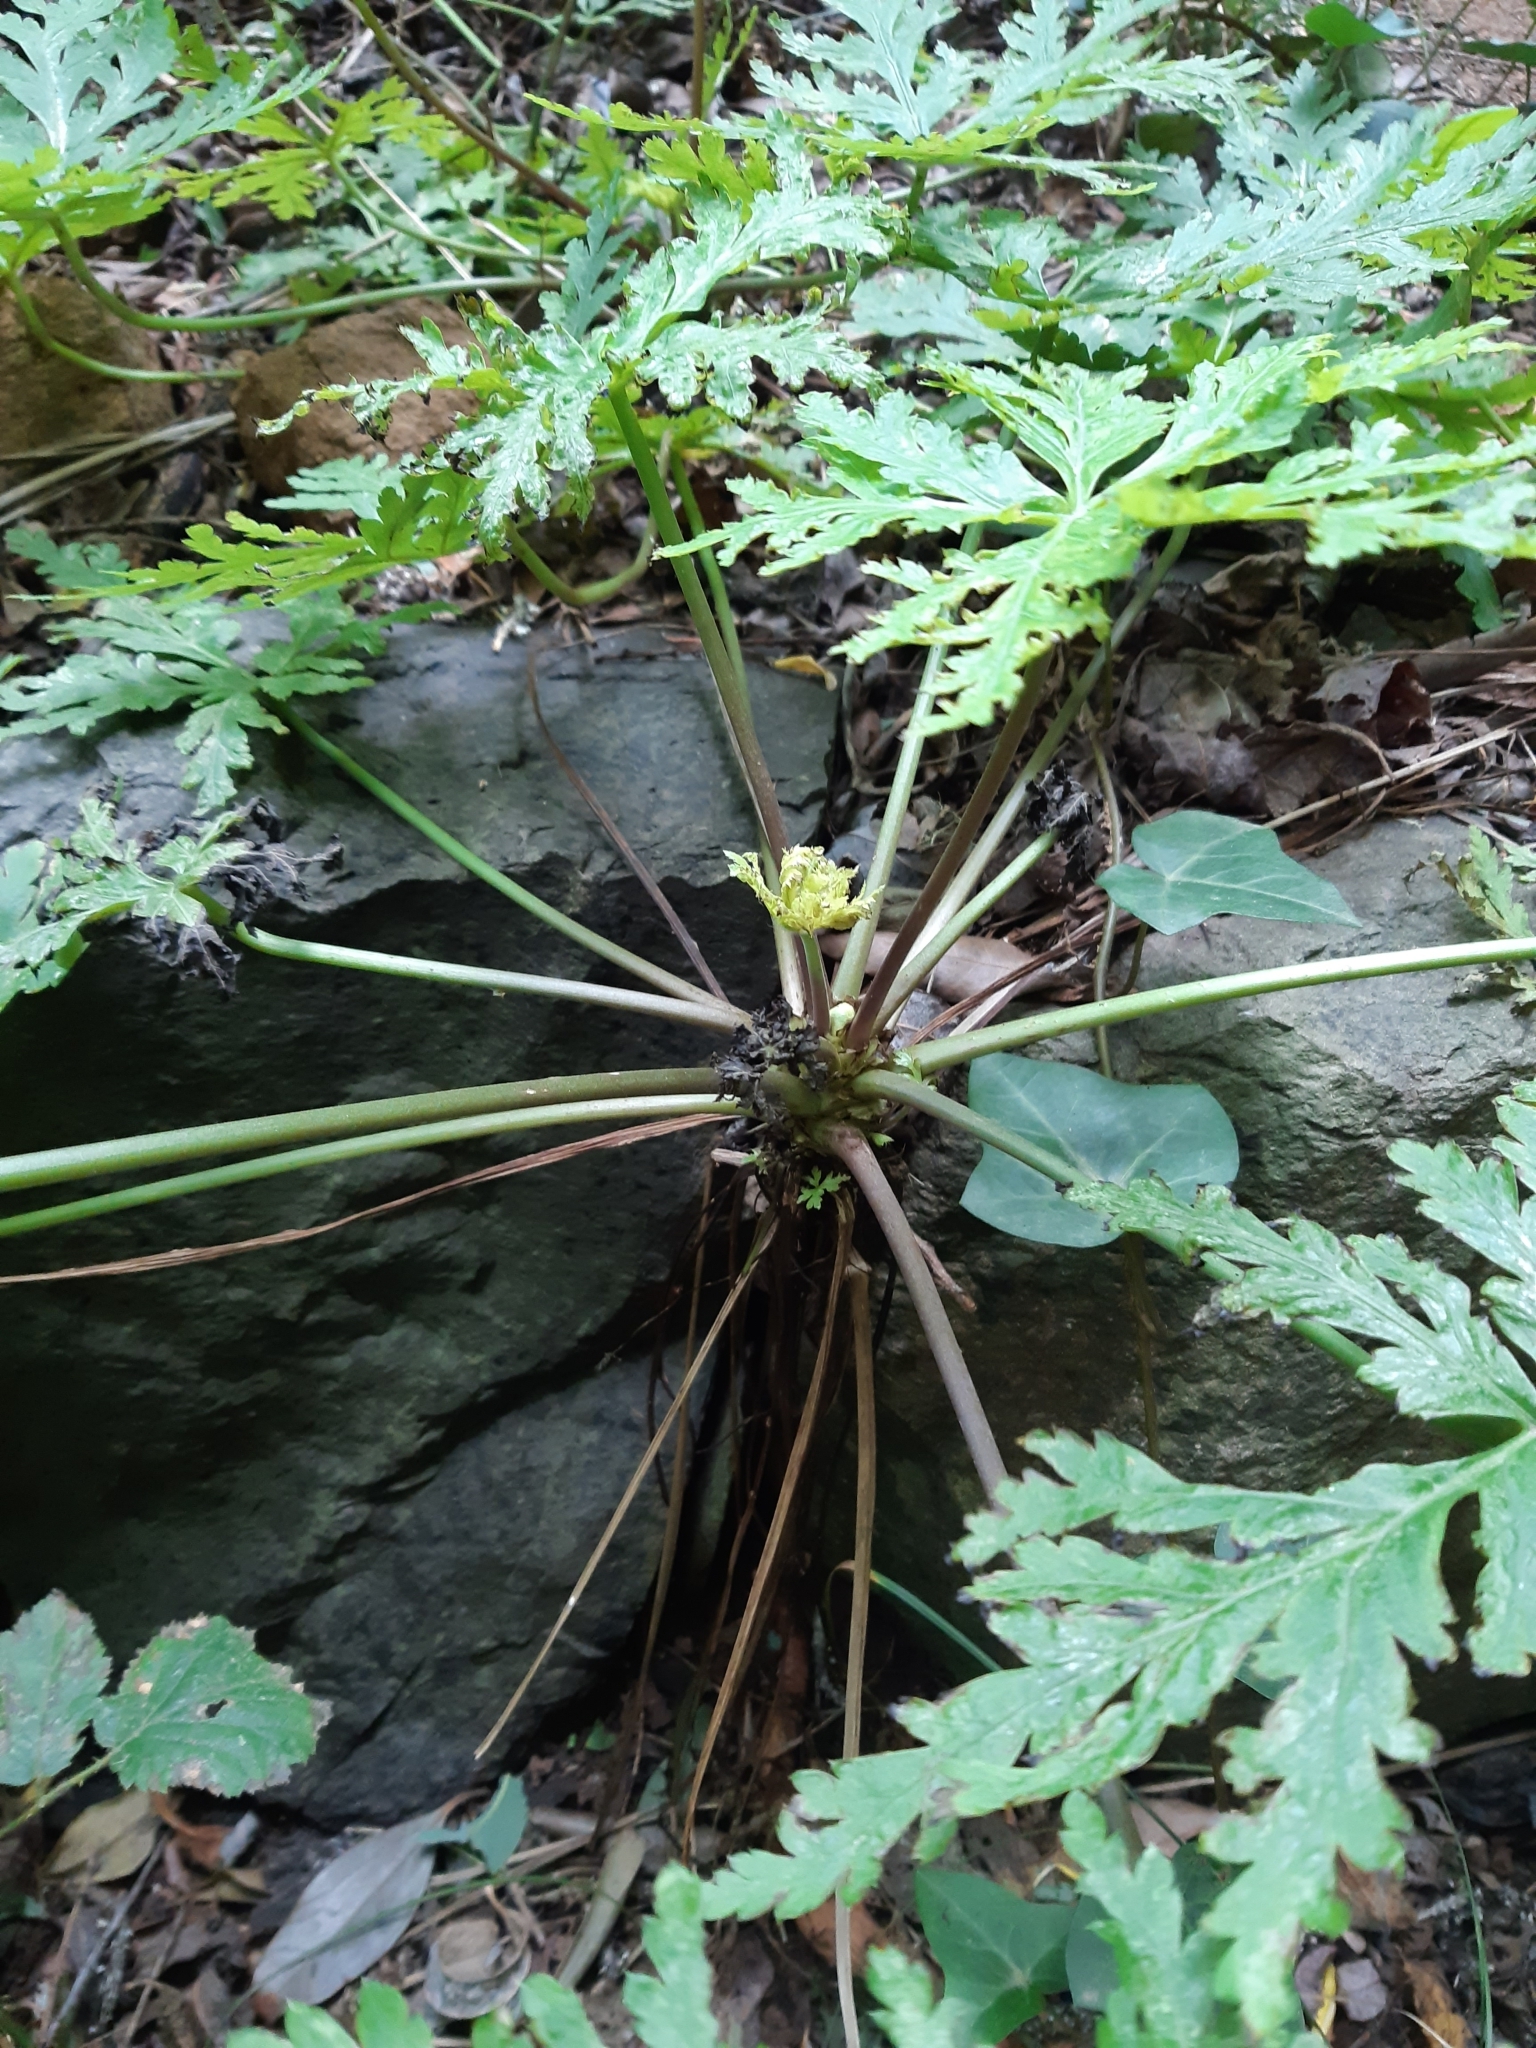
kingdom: Plantae
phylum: Tracheophyta
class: Magnoliopsida
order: Geraniales
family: Geraniaceae
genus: Geranium
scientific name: Geranium reuteri
